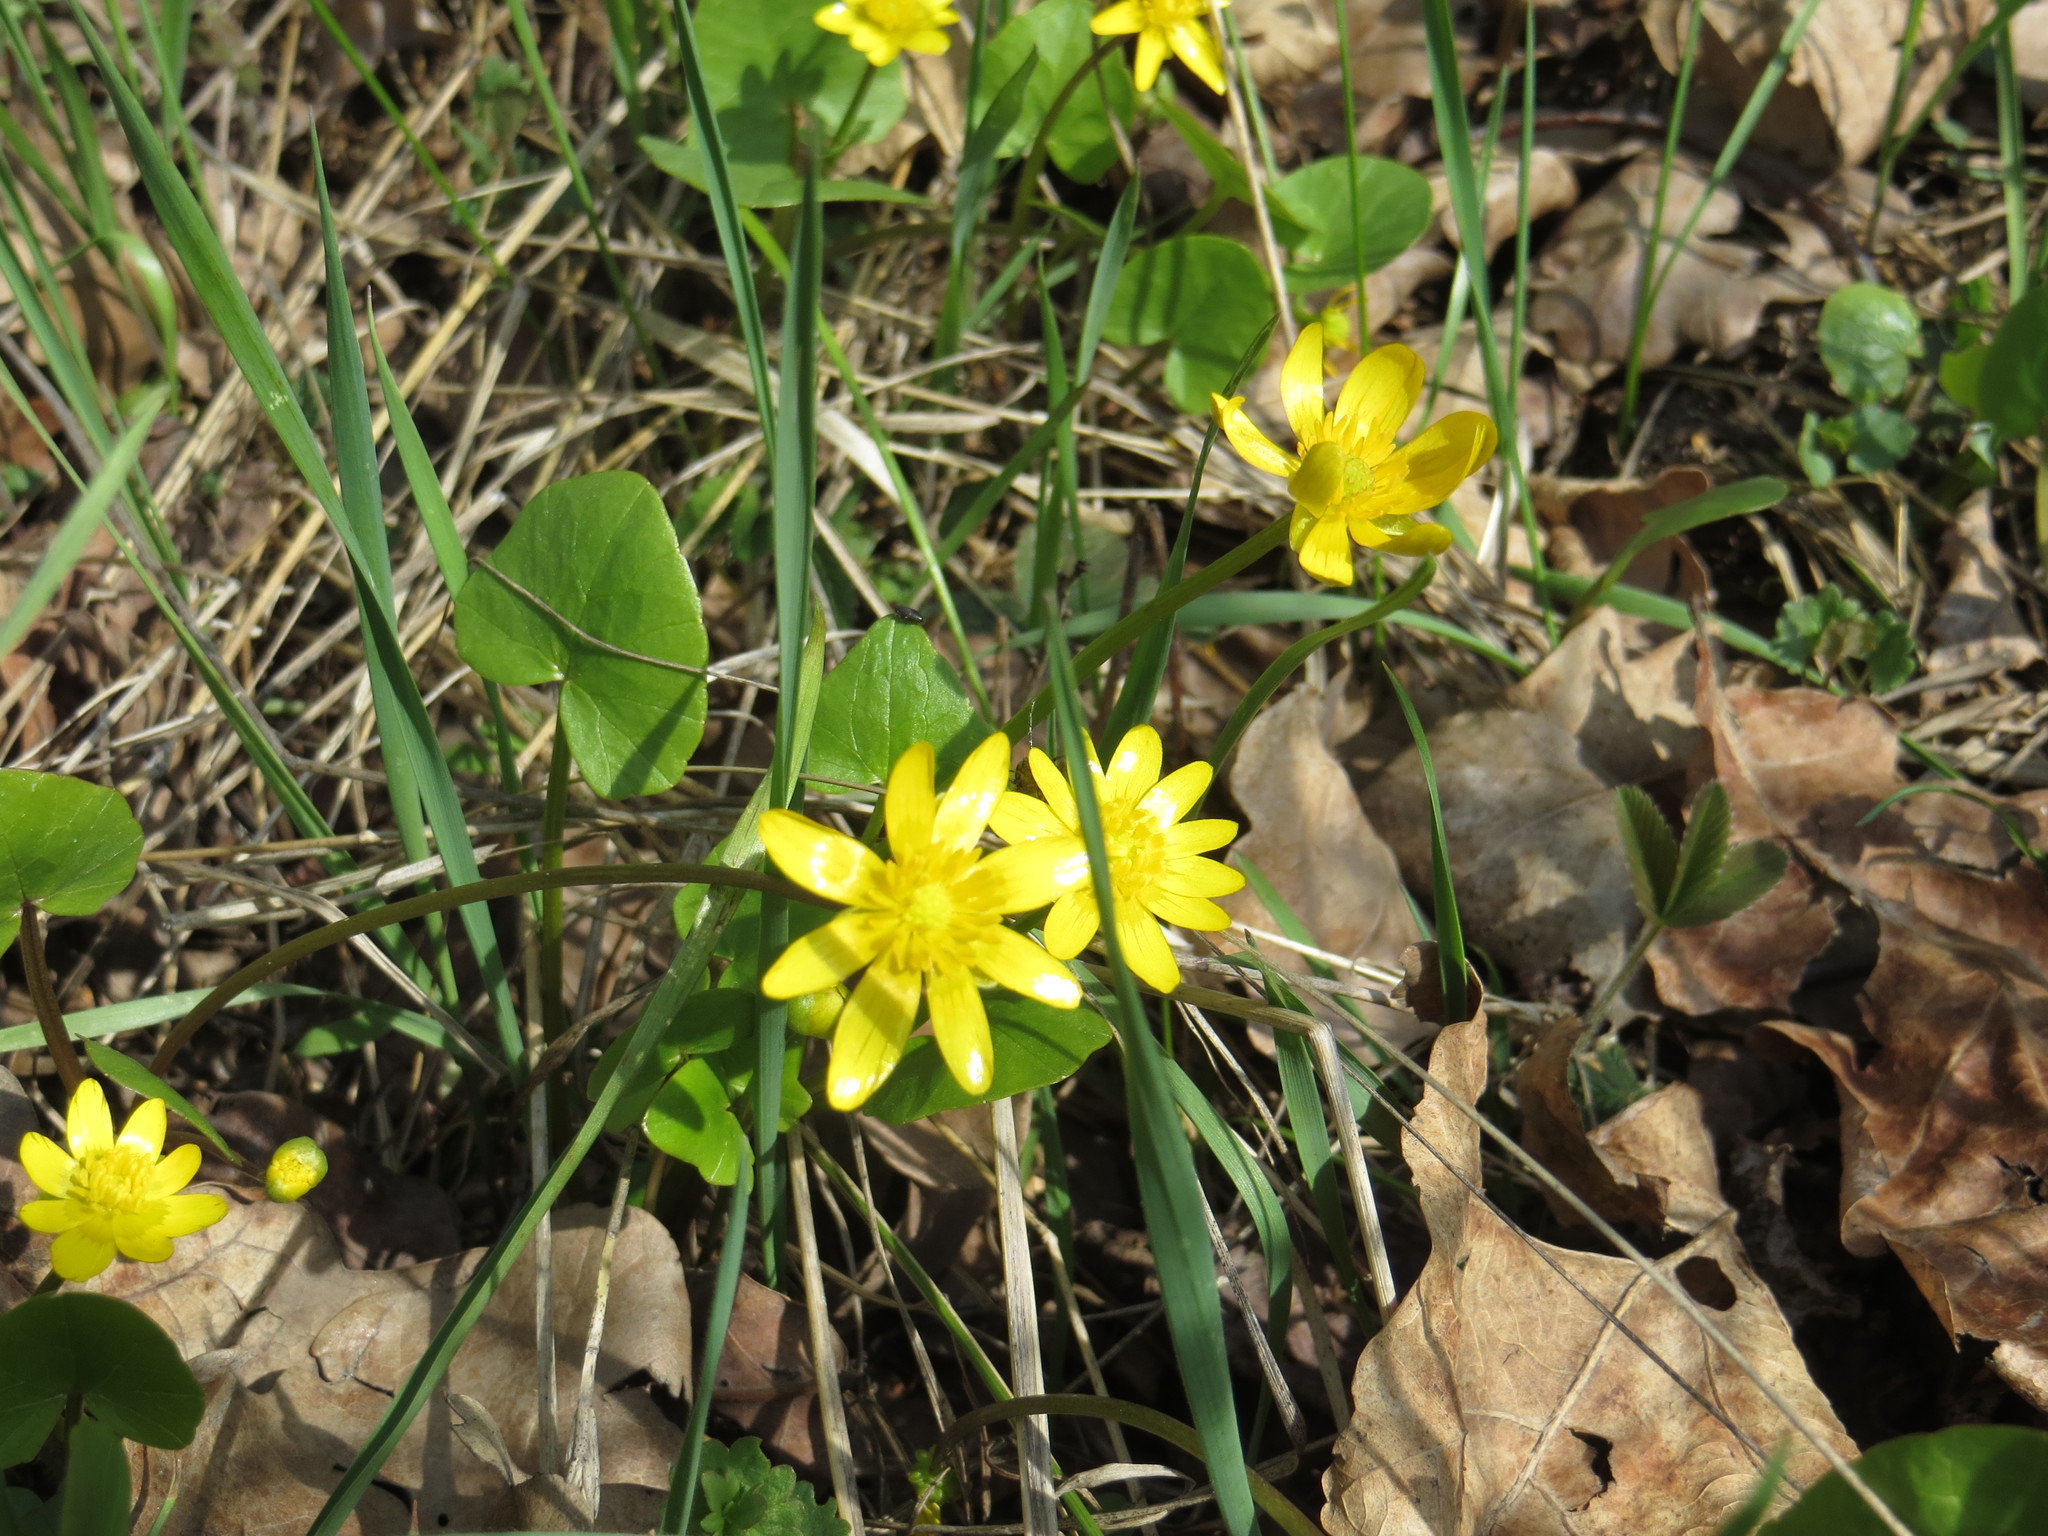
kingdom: Plantae
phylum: Tracheophyta
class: Magnoliopsida
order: Ranunculales
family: Ranunculaceae
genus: Ficaria
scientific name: Ficaria verna
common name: Lesser celandine
